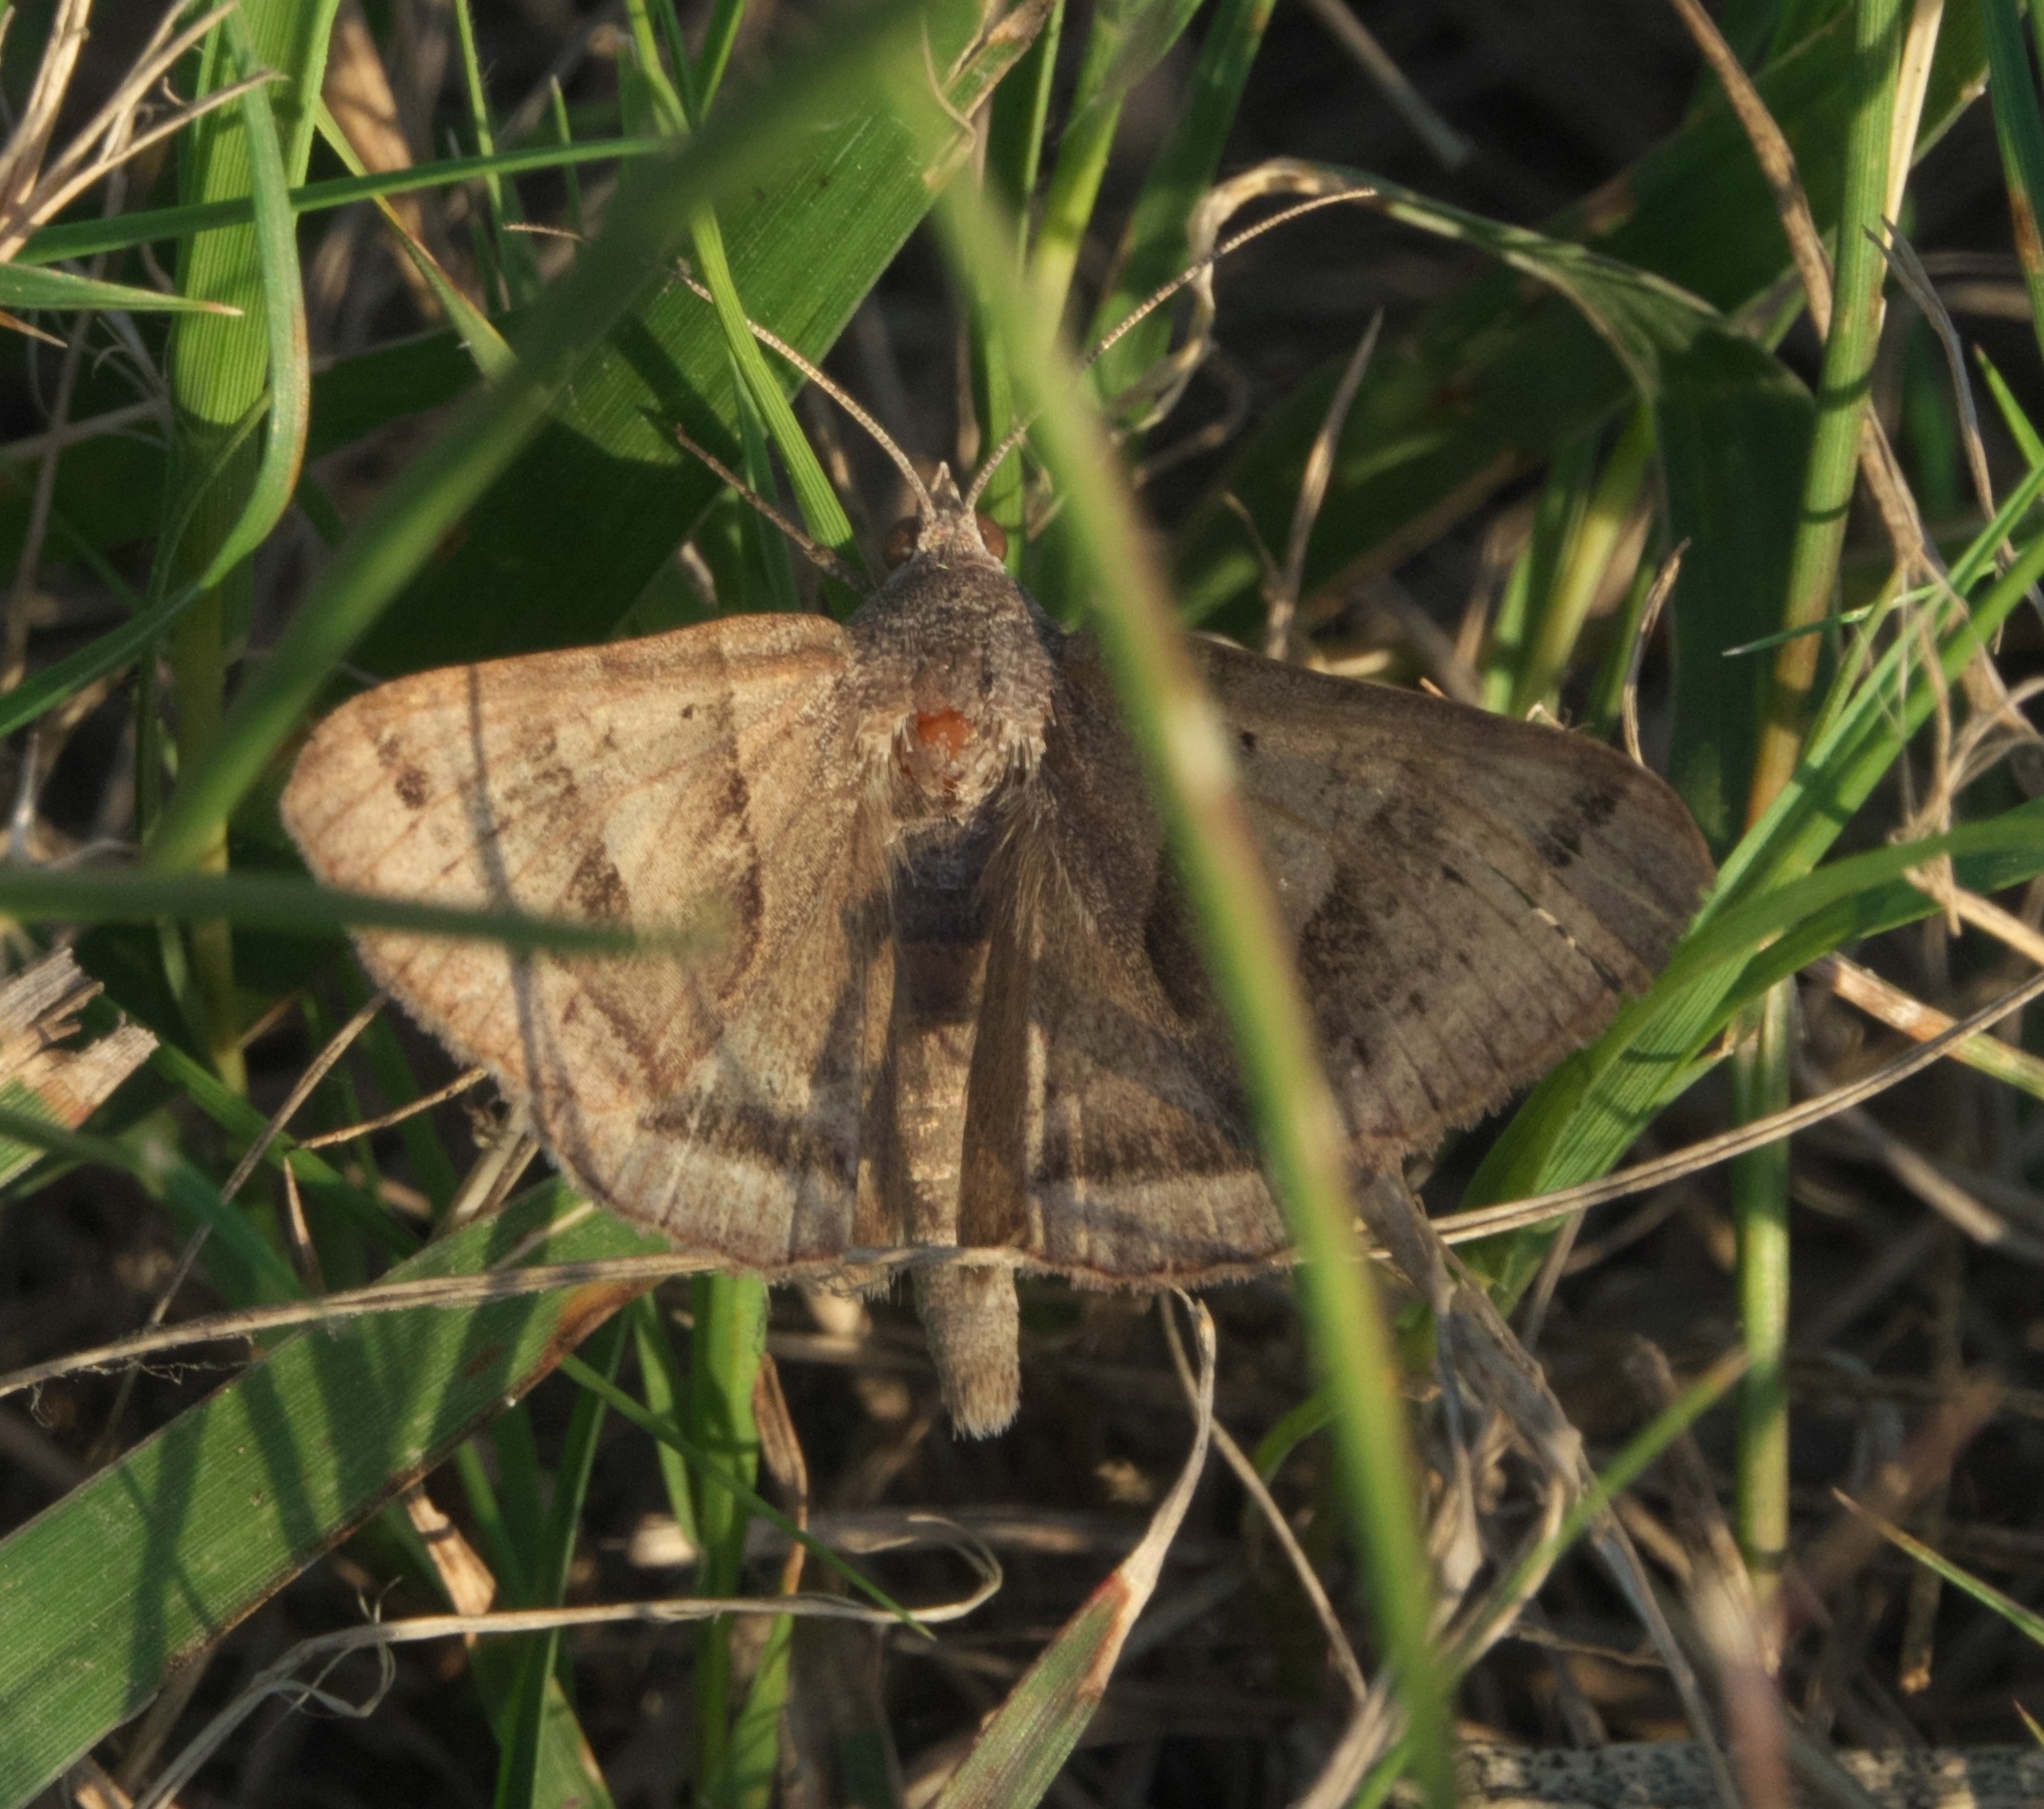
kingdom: Animalia
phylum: Arthropoda
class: Insecta
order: Lepidoptera
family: Erebidae
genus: Caenurgina
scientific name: Caenurgina erechtea
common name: Forage looper moth
